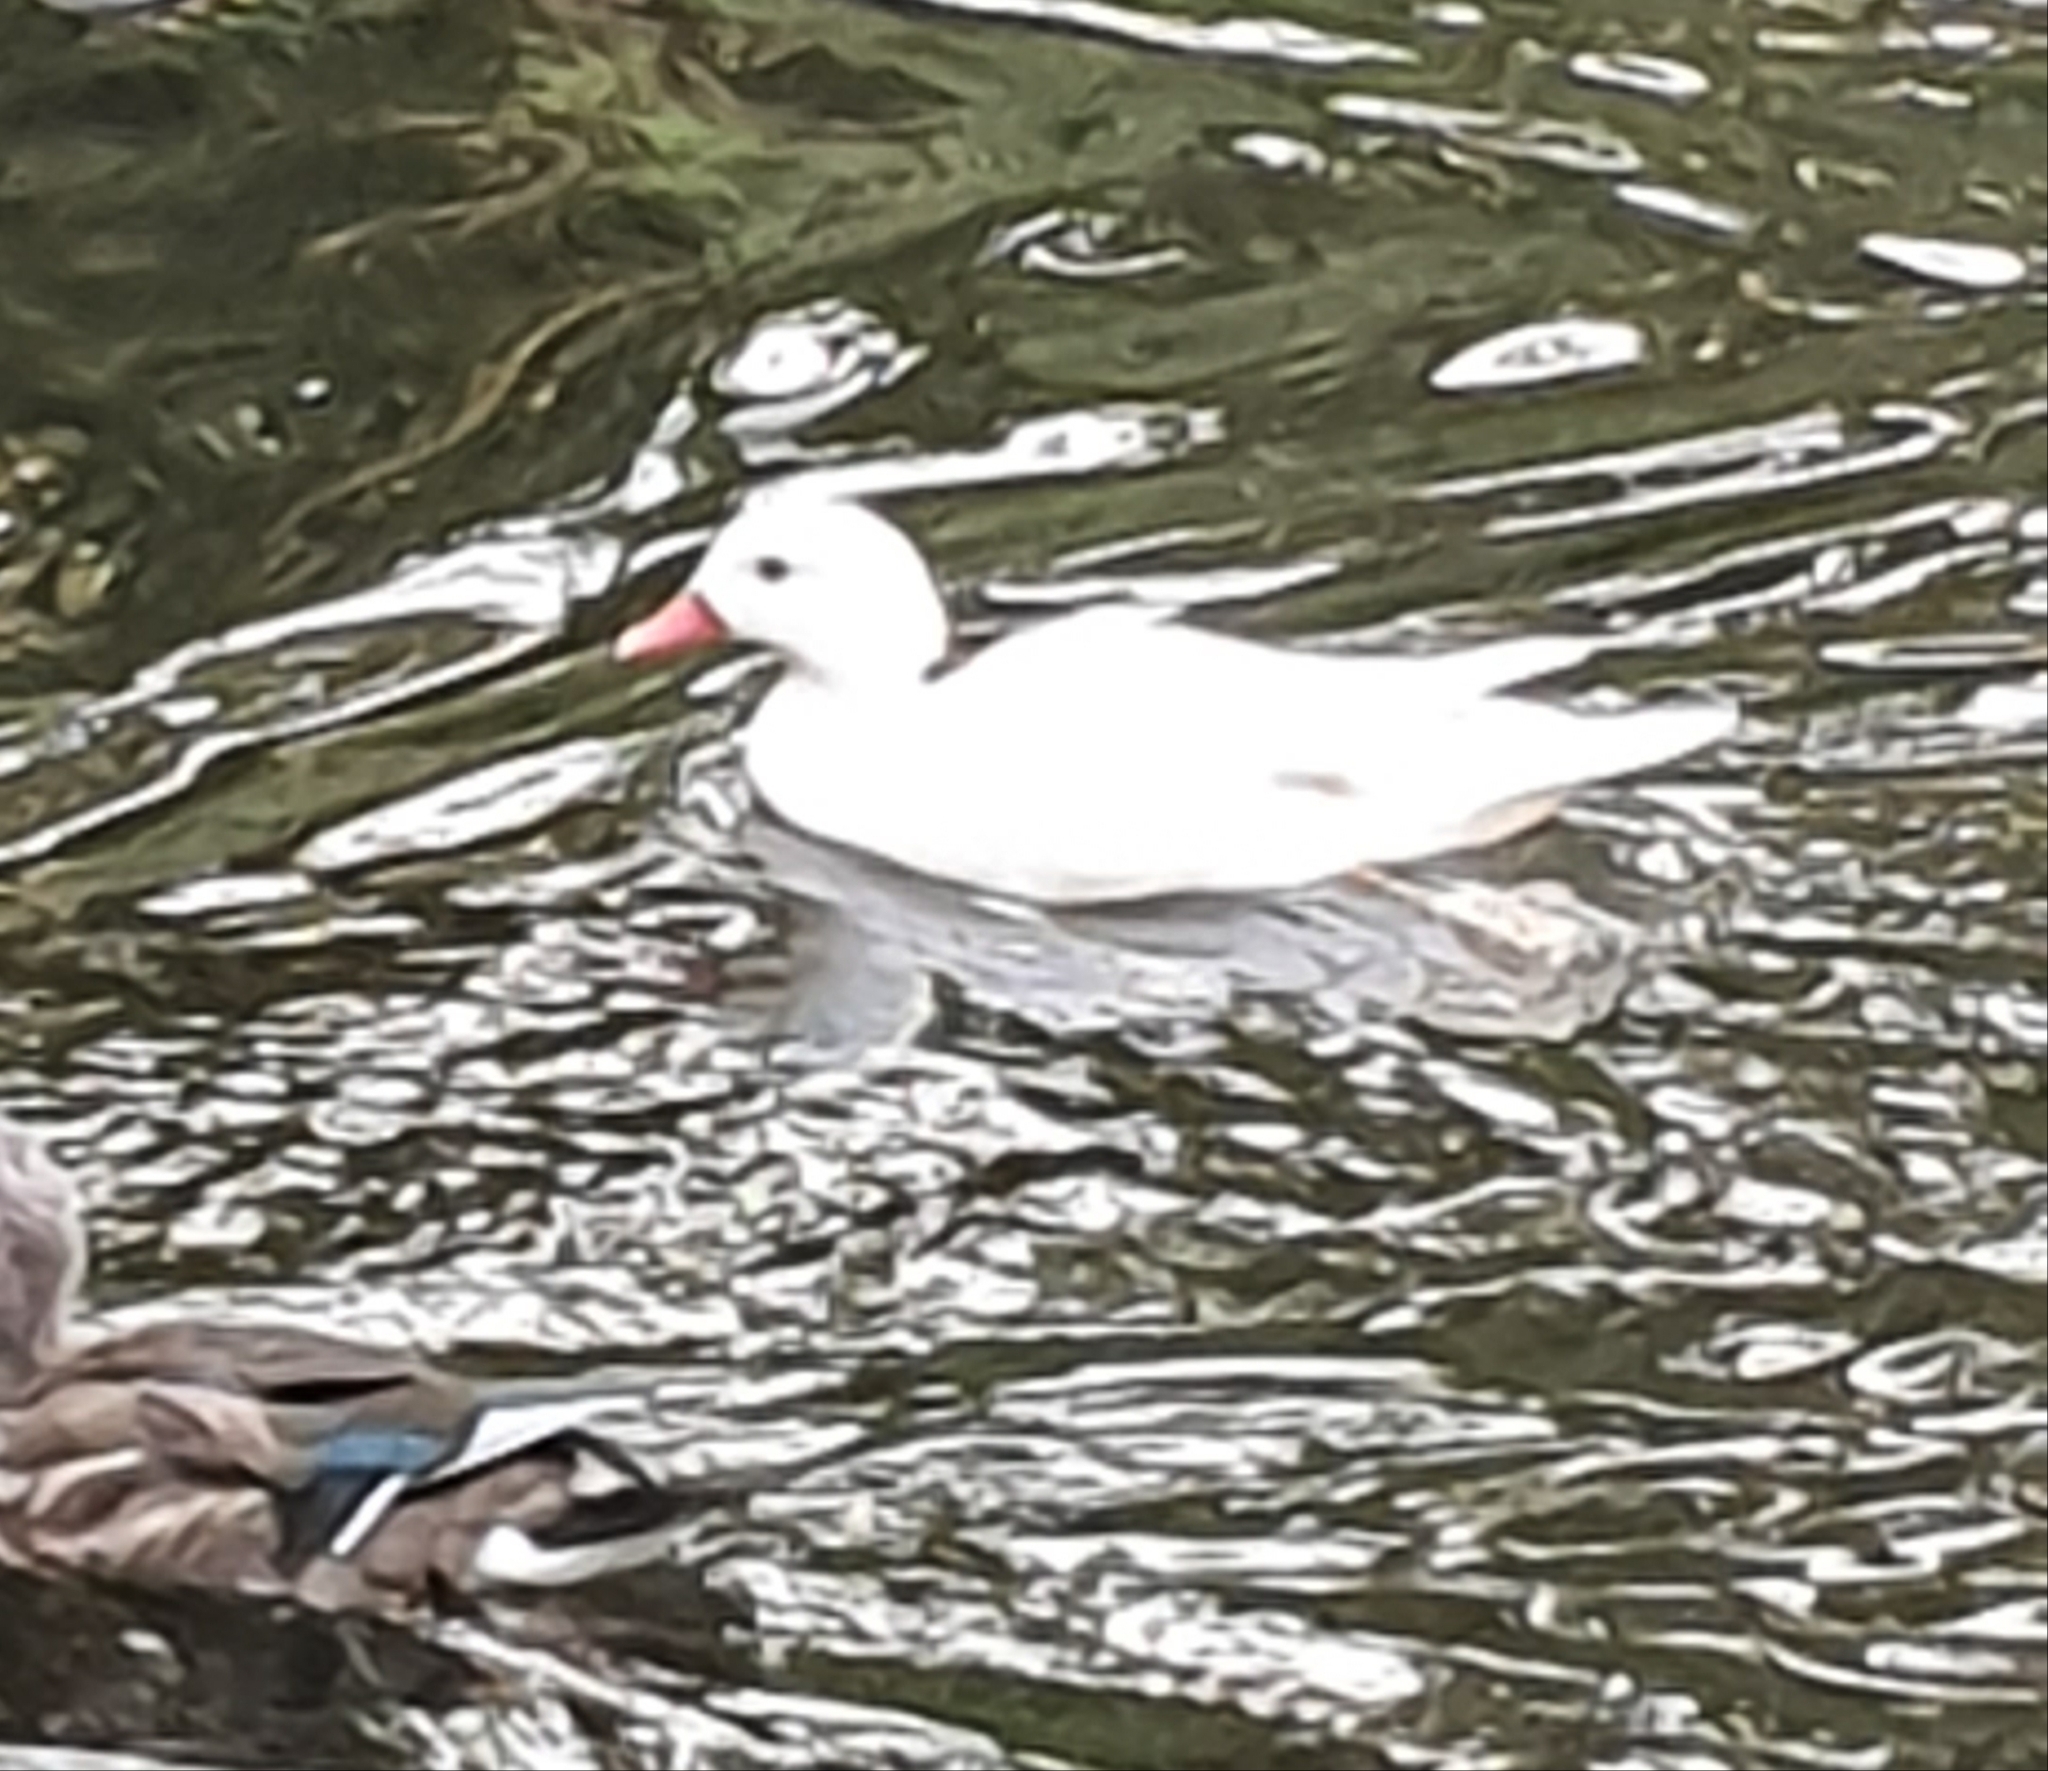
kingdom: Animalia
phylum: Chordata
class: Aves
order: Anseriformes
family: Anatidae
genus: Aix
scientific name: Aix galericulata
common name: Mandarin duck
